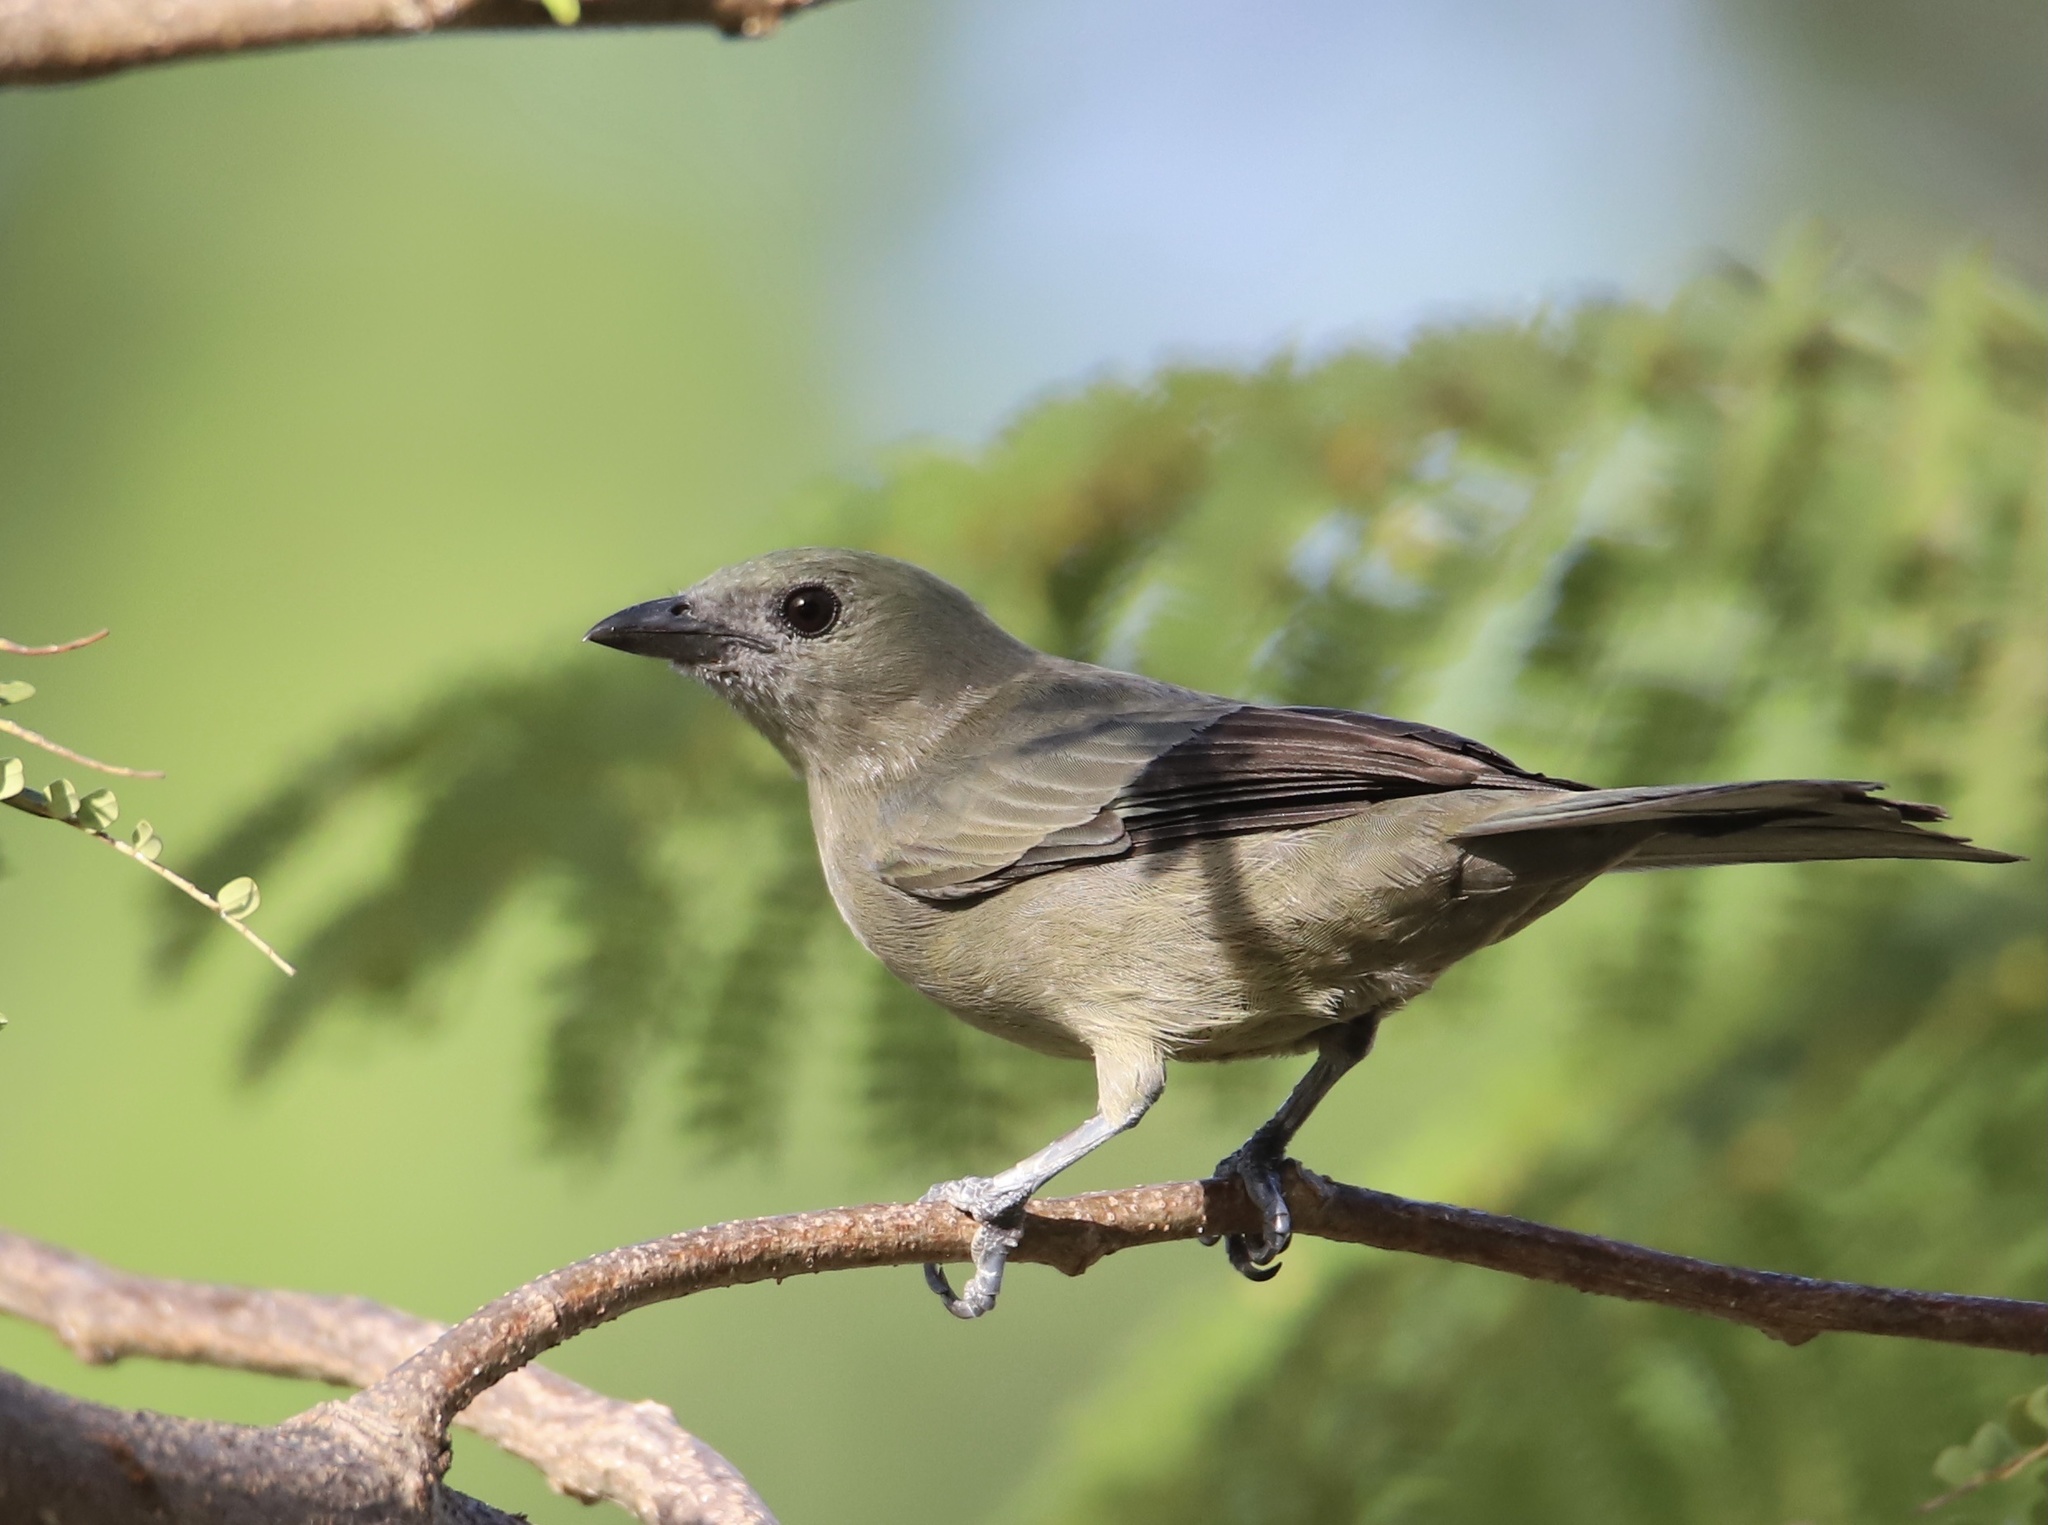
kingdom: Animalia
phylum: Chordata
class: Aves
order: Passeriformes
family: Thraupidae
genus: Thraupis
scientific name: Thraupis palmarum
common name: Palm tanager
